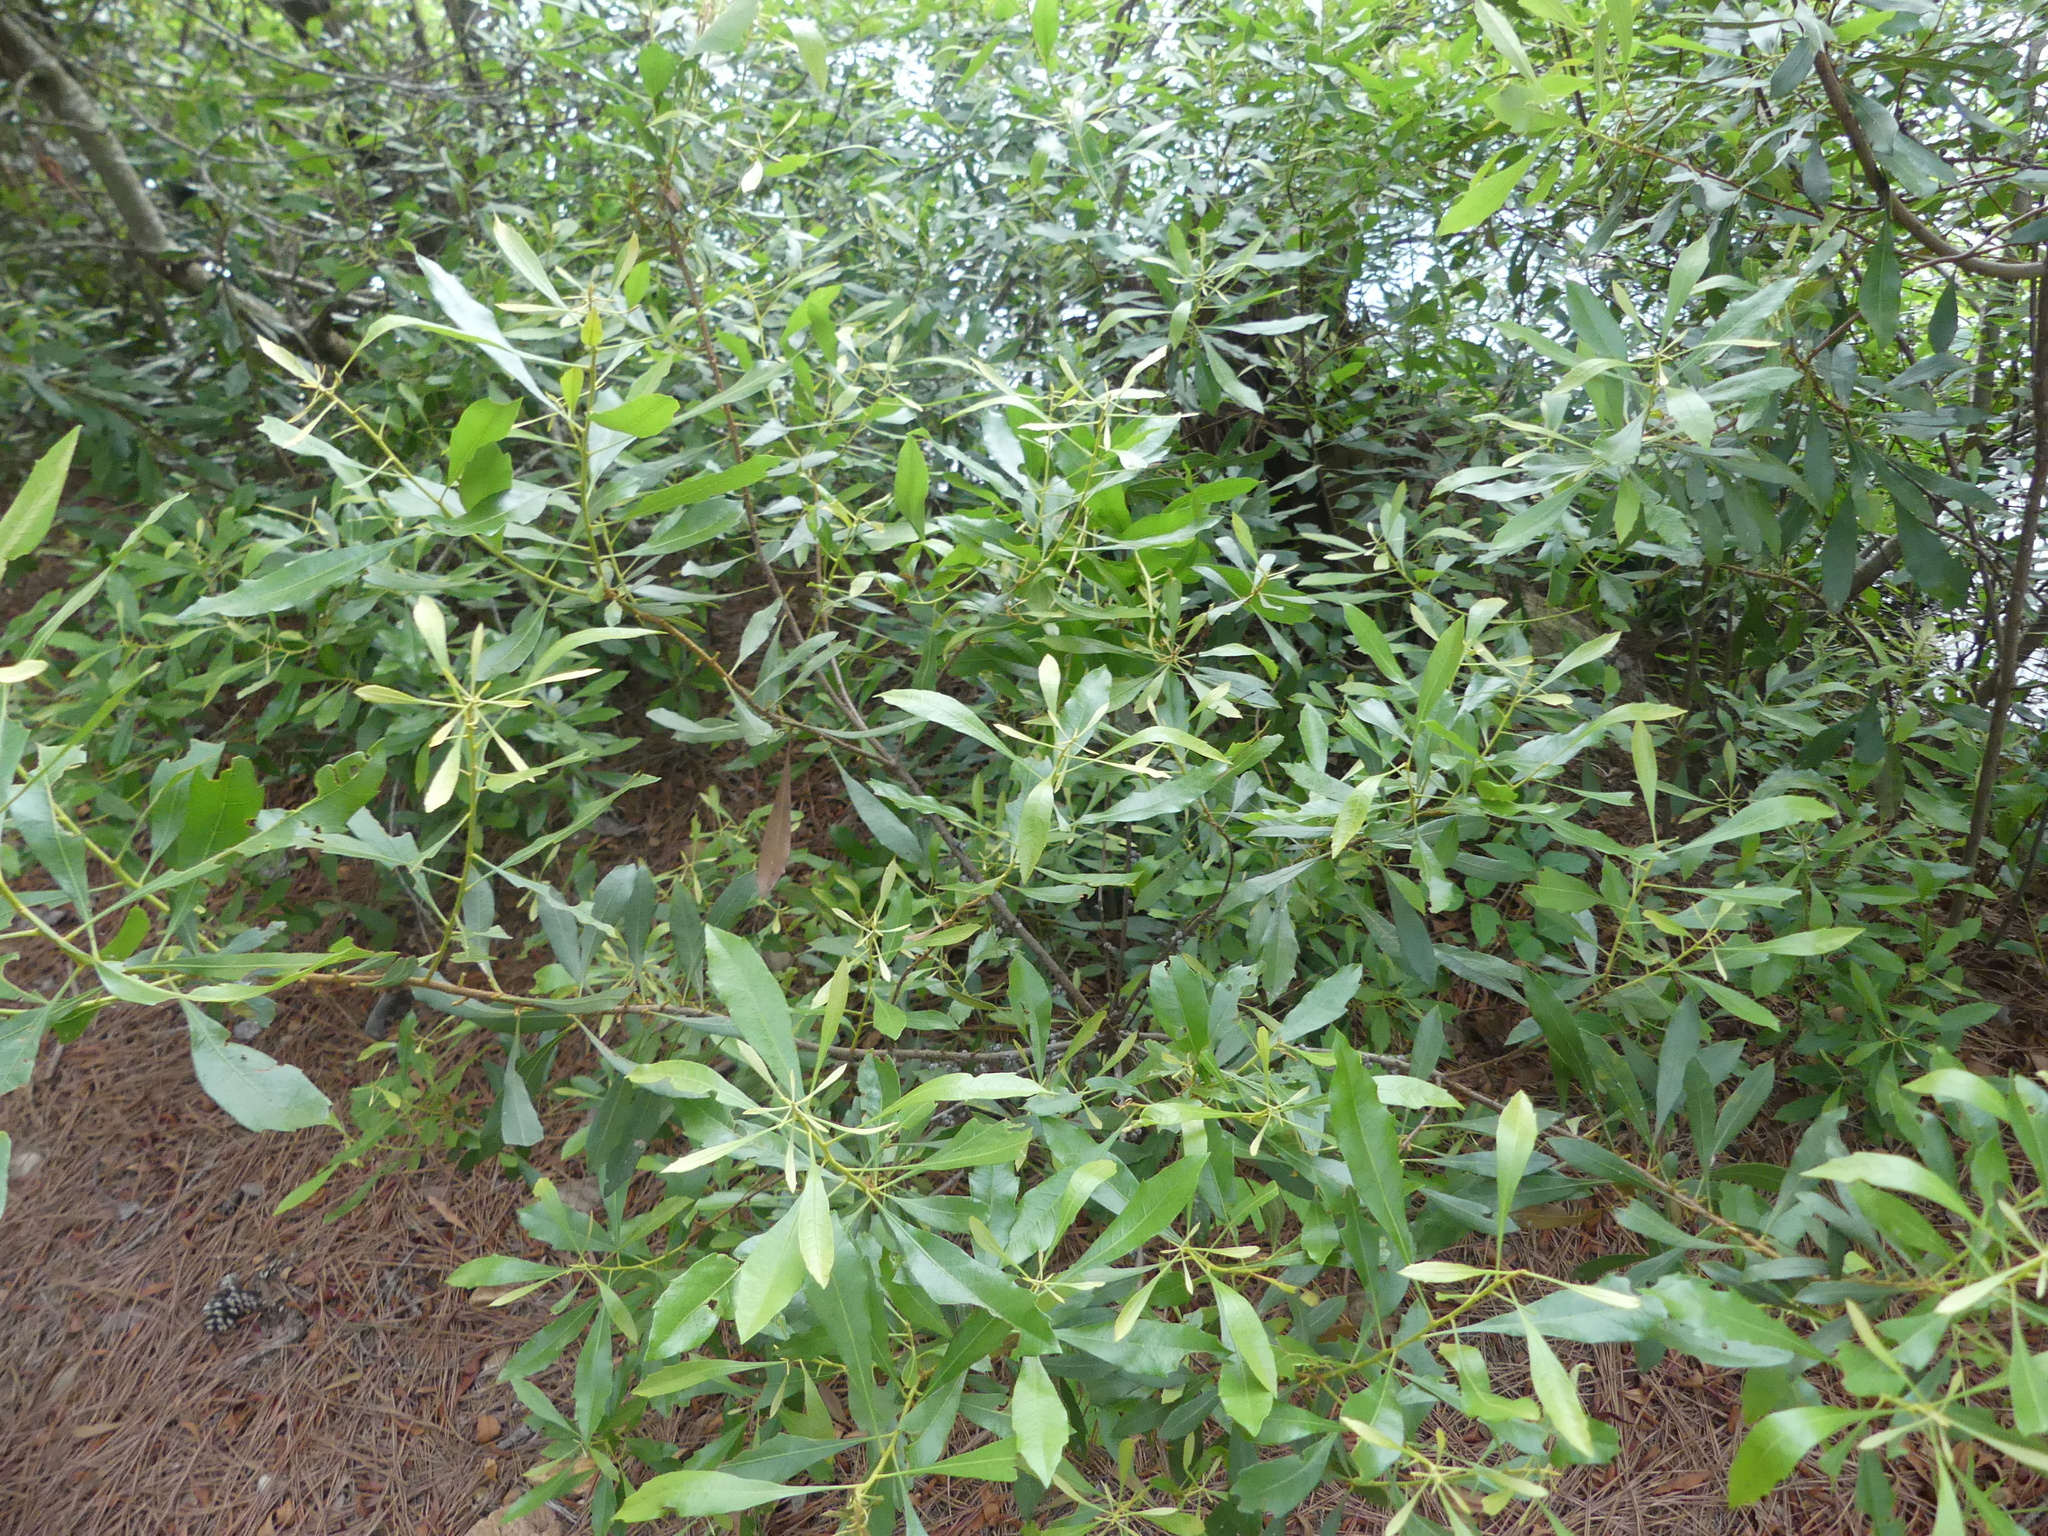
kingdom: Plantae
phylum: Tracheophyta
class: Magnoliopsida
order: Fagales
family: Myricaceae
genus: Morella
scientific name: Morella cerifera
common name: Wax myrtle
